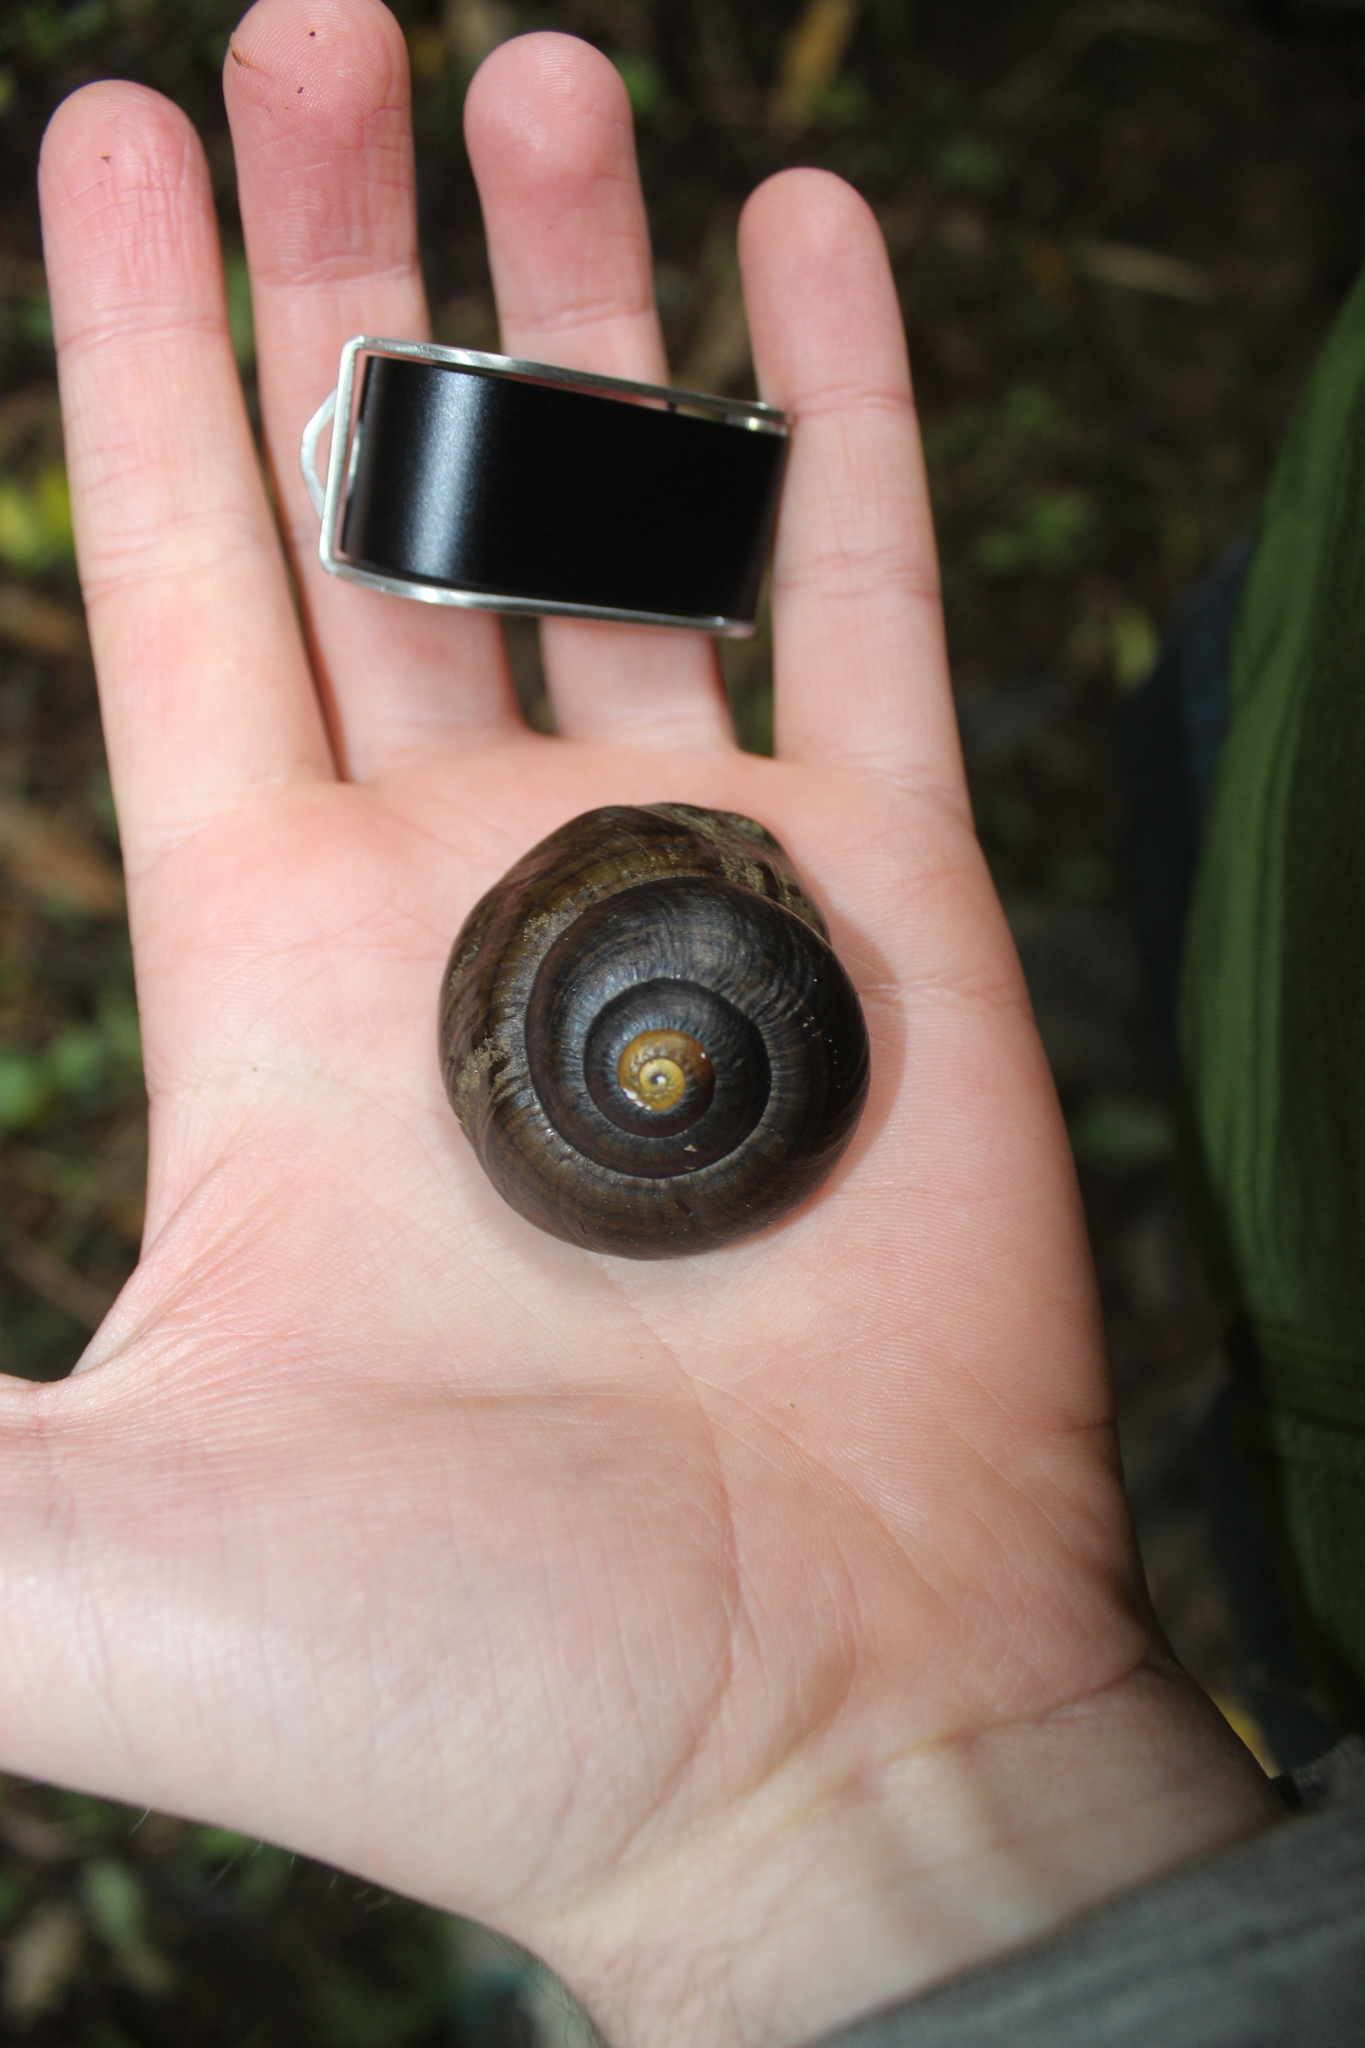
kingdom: Animalia
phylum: Mollusca
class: Gastropoda
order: Stylommatophora
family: Rhytididae
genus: Powelliphanta
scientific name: Powelliphanta traversi
